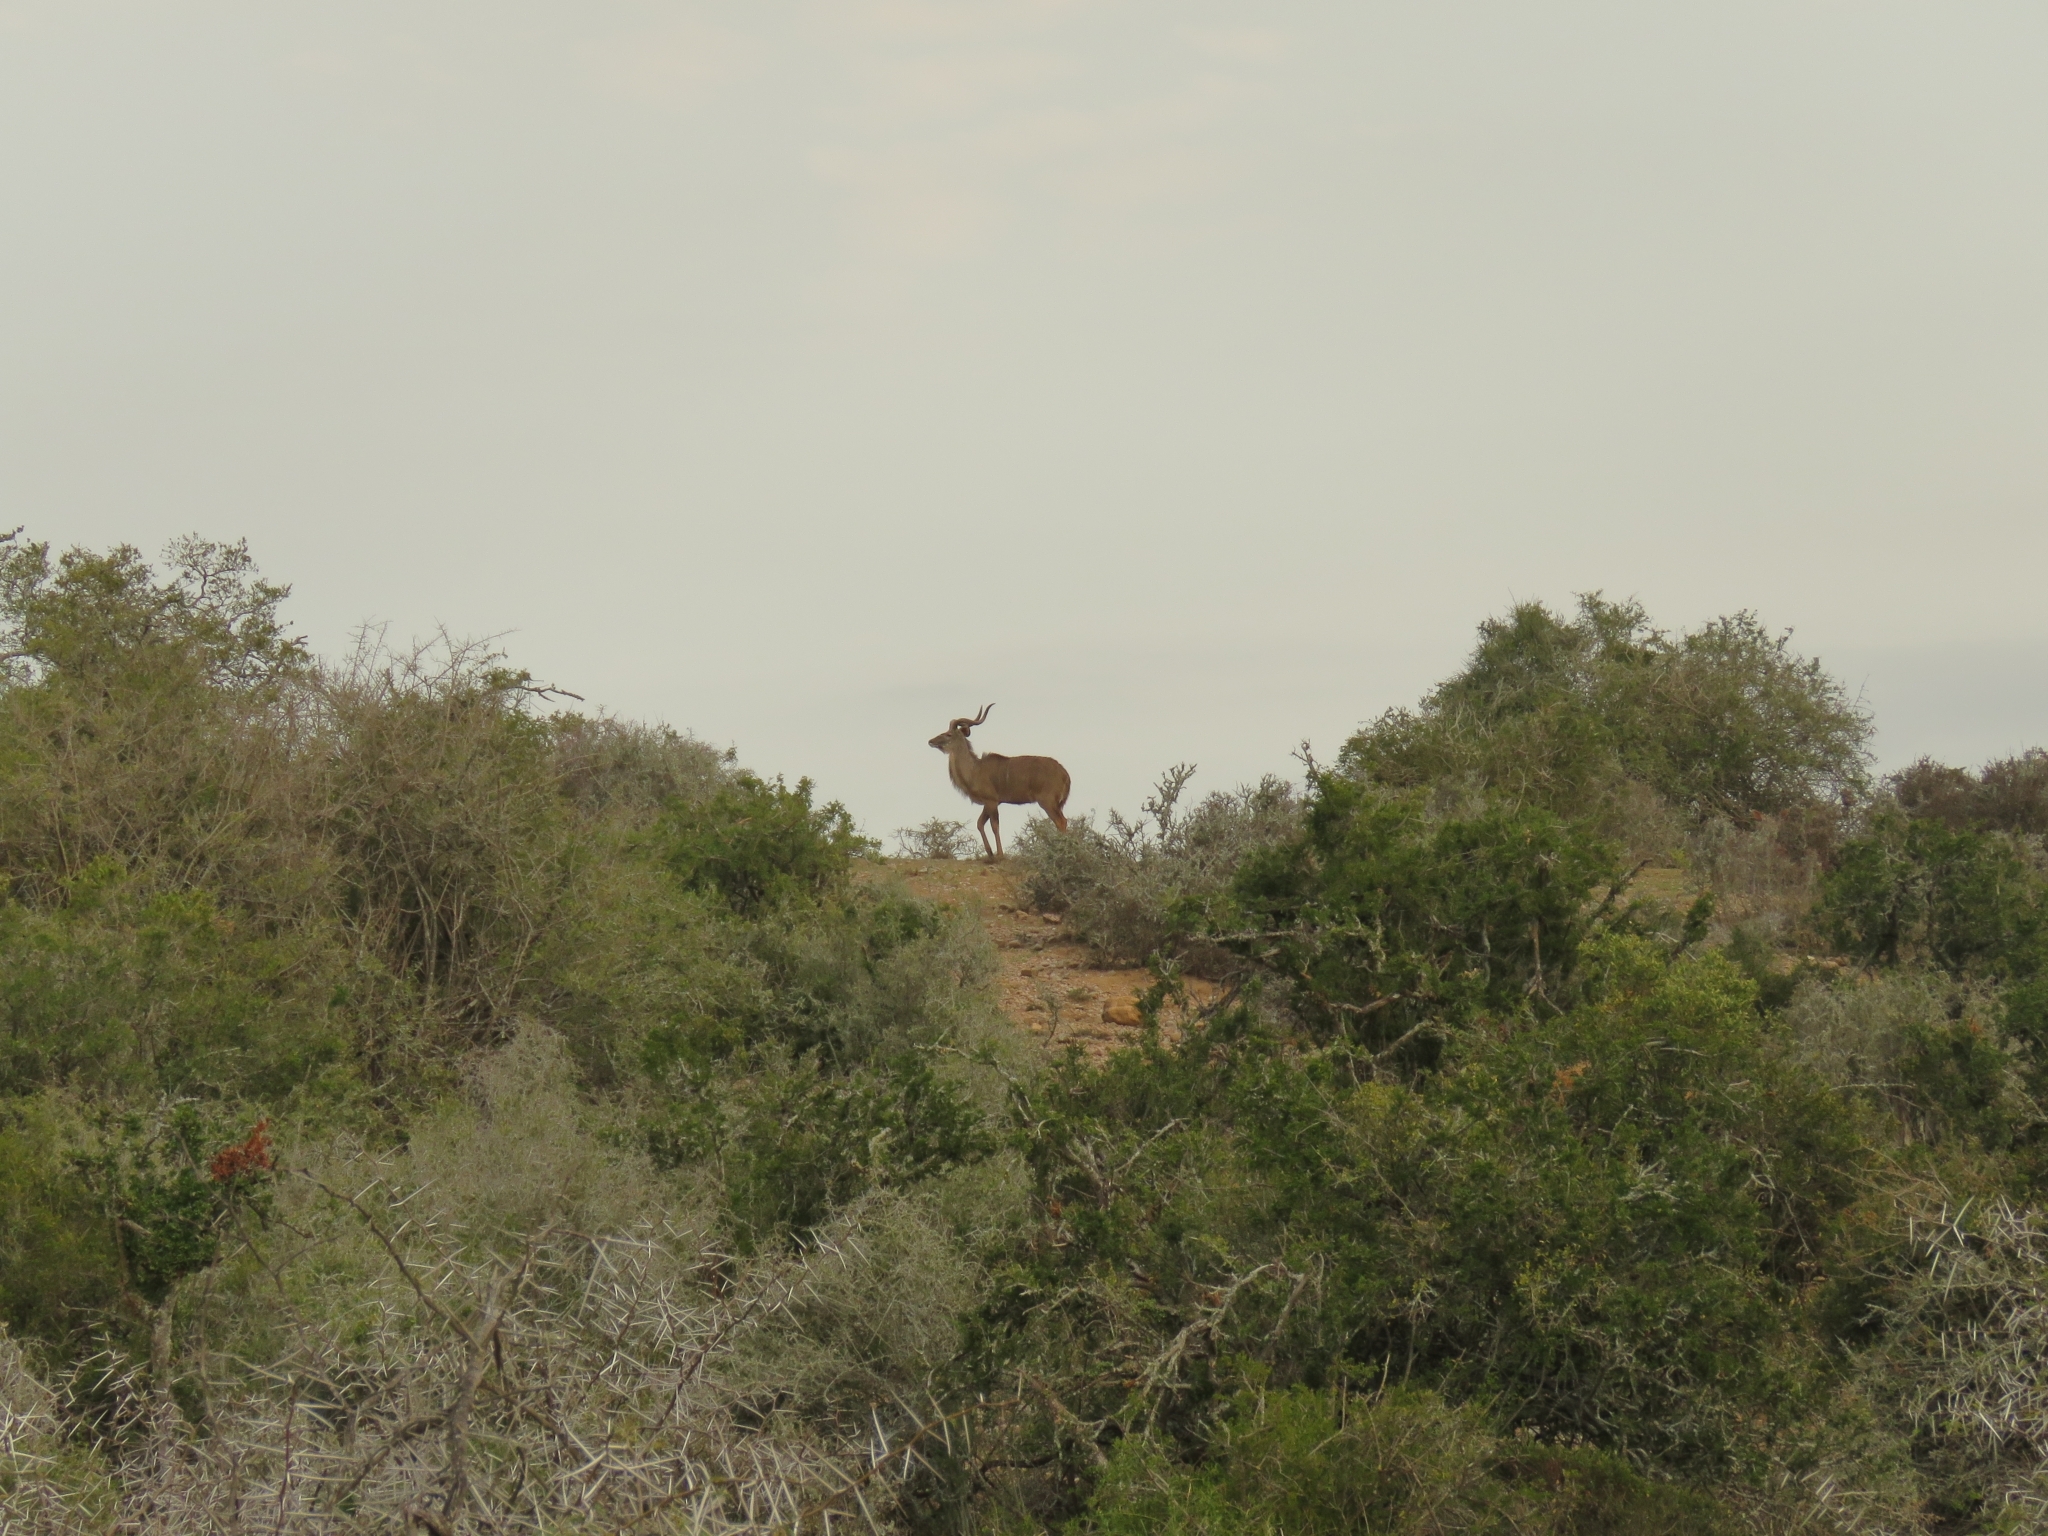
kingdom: Animalia
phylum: Chordata
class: Mammalia
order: Artiodactyla
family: Bovidae
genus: Tragelaphus
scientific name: Tragelaphus strepsiceros
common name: Greater kudu
